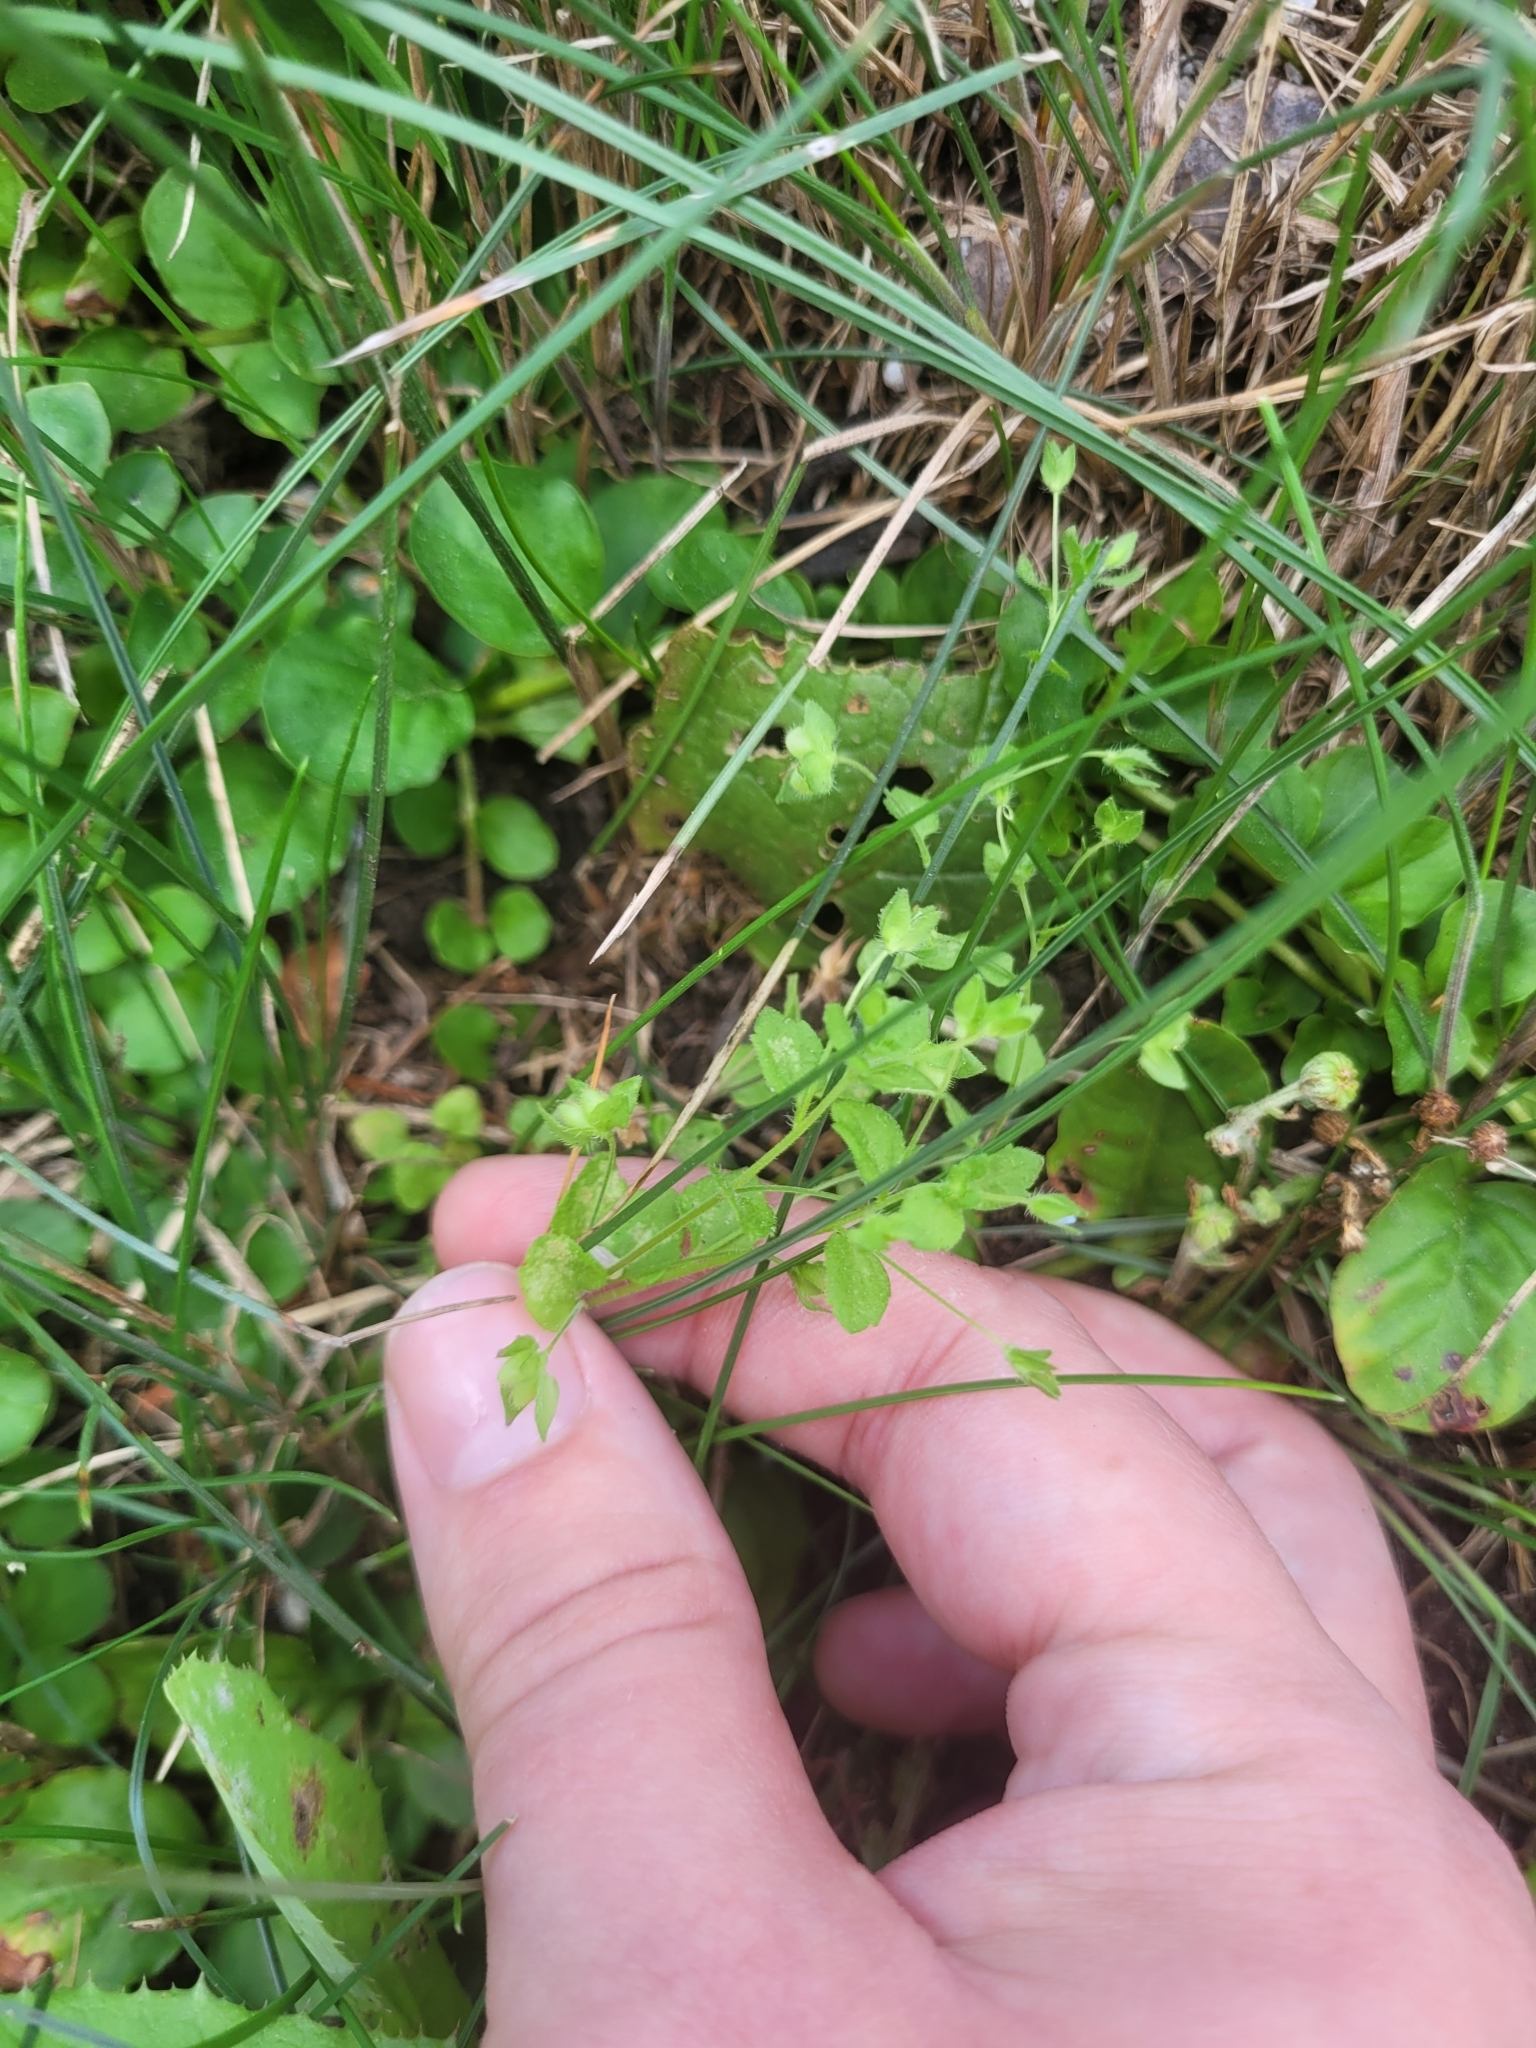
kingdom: Plantae
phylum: Tracheophyta
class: Magnoliopsida
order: Lamiales
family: Plantaginaceae
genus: Veronica
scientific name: Veronica persica
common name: Common field-speedwell
